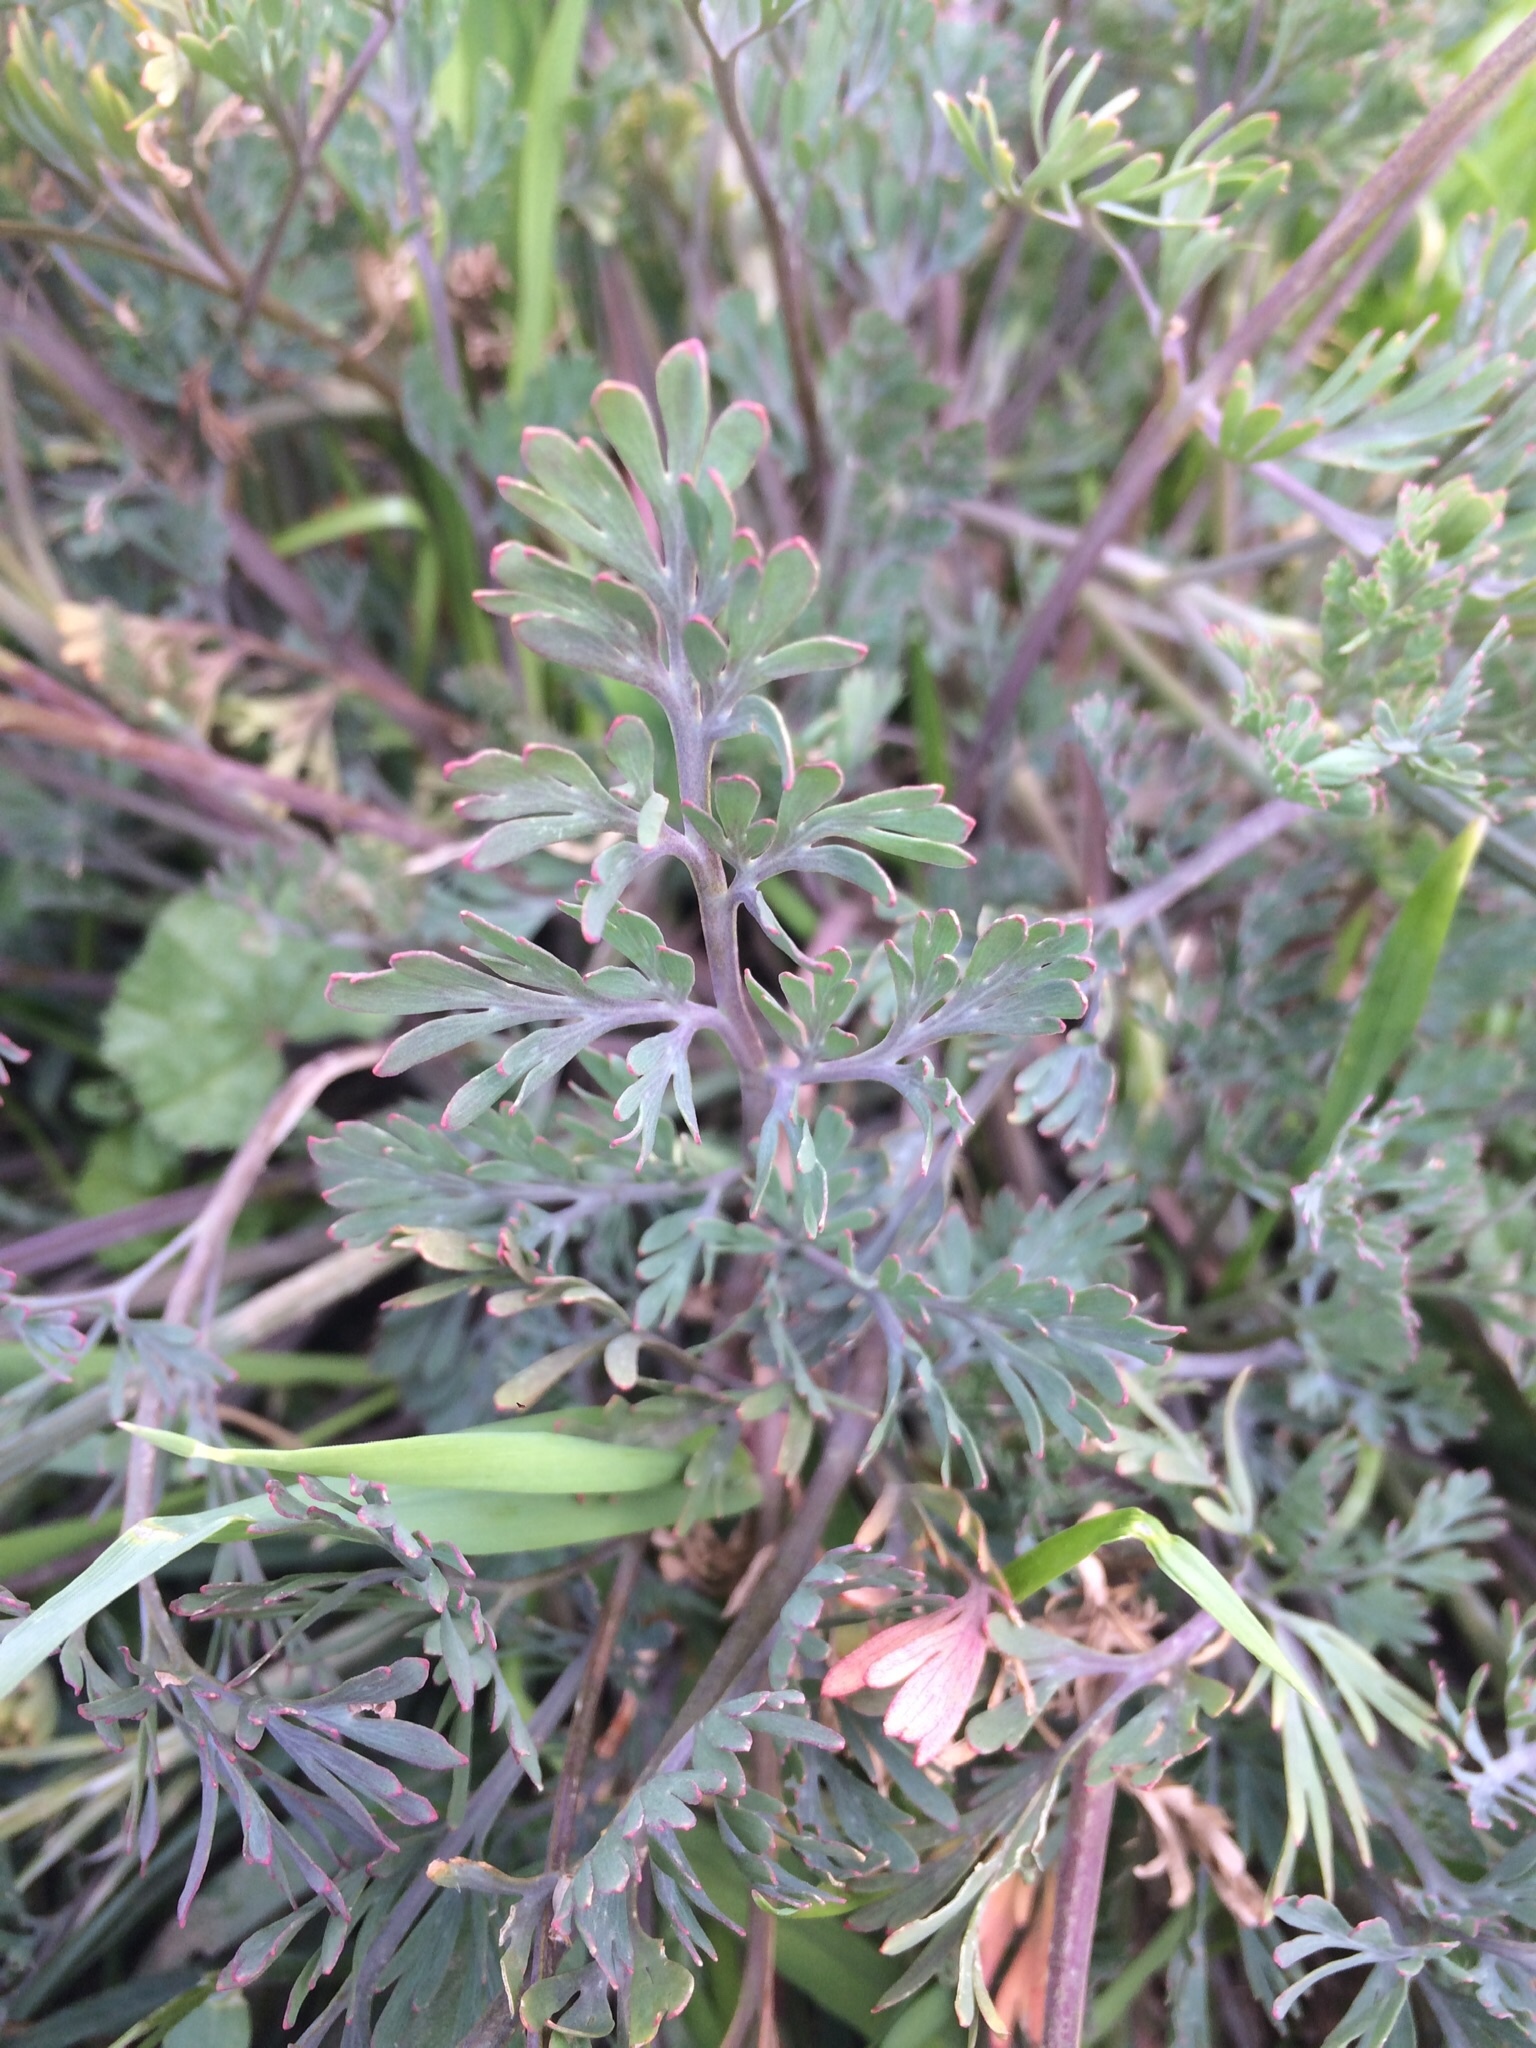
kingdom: Plantae
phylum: Tracheophyta
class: Magnoliopsida
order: Ranunculales
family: Papaveraceae
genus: Eschscholzia
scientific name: Eschscholzia californica
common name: California poppy
